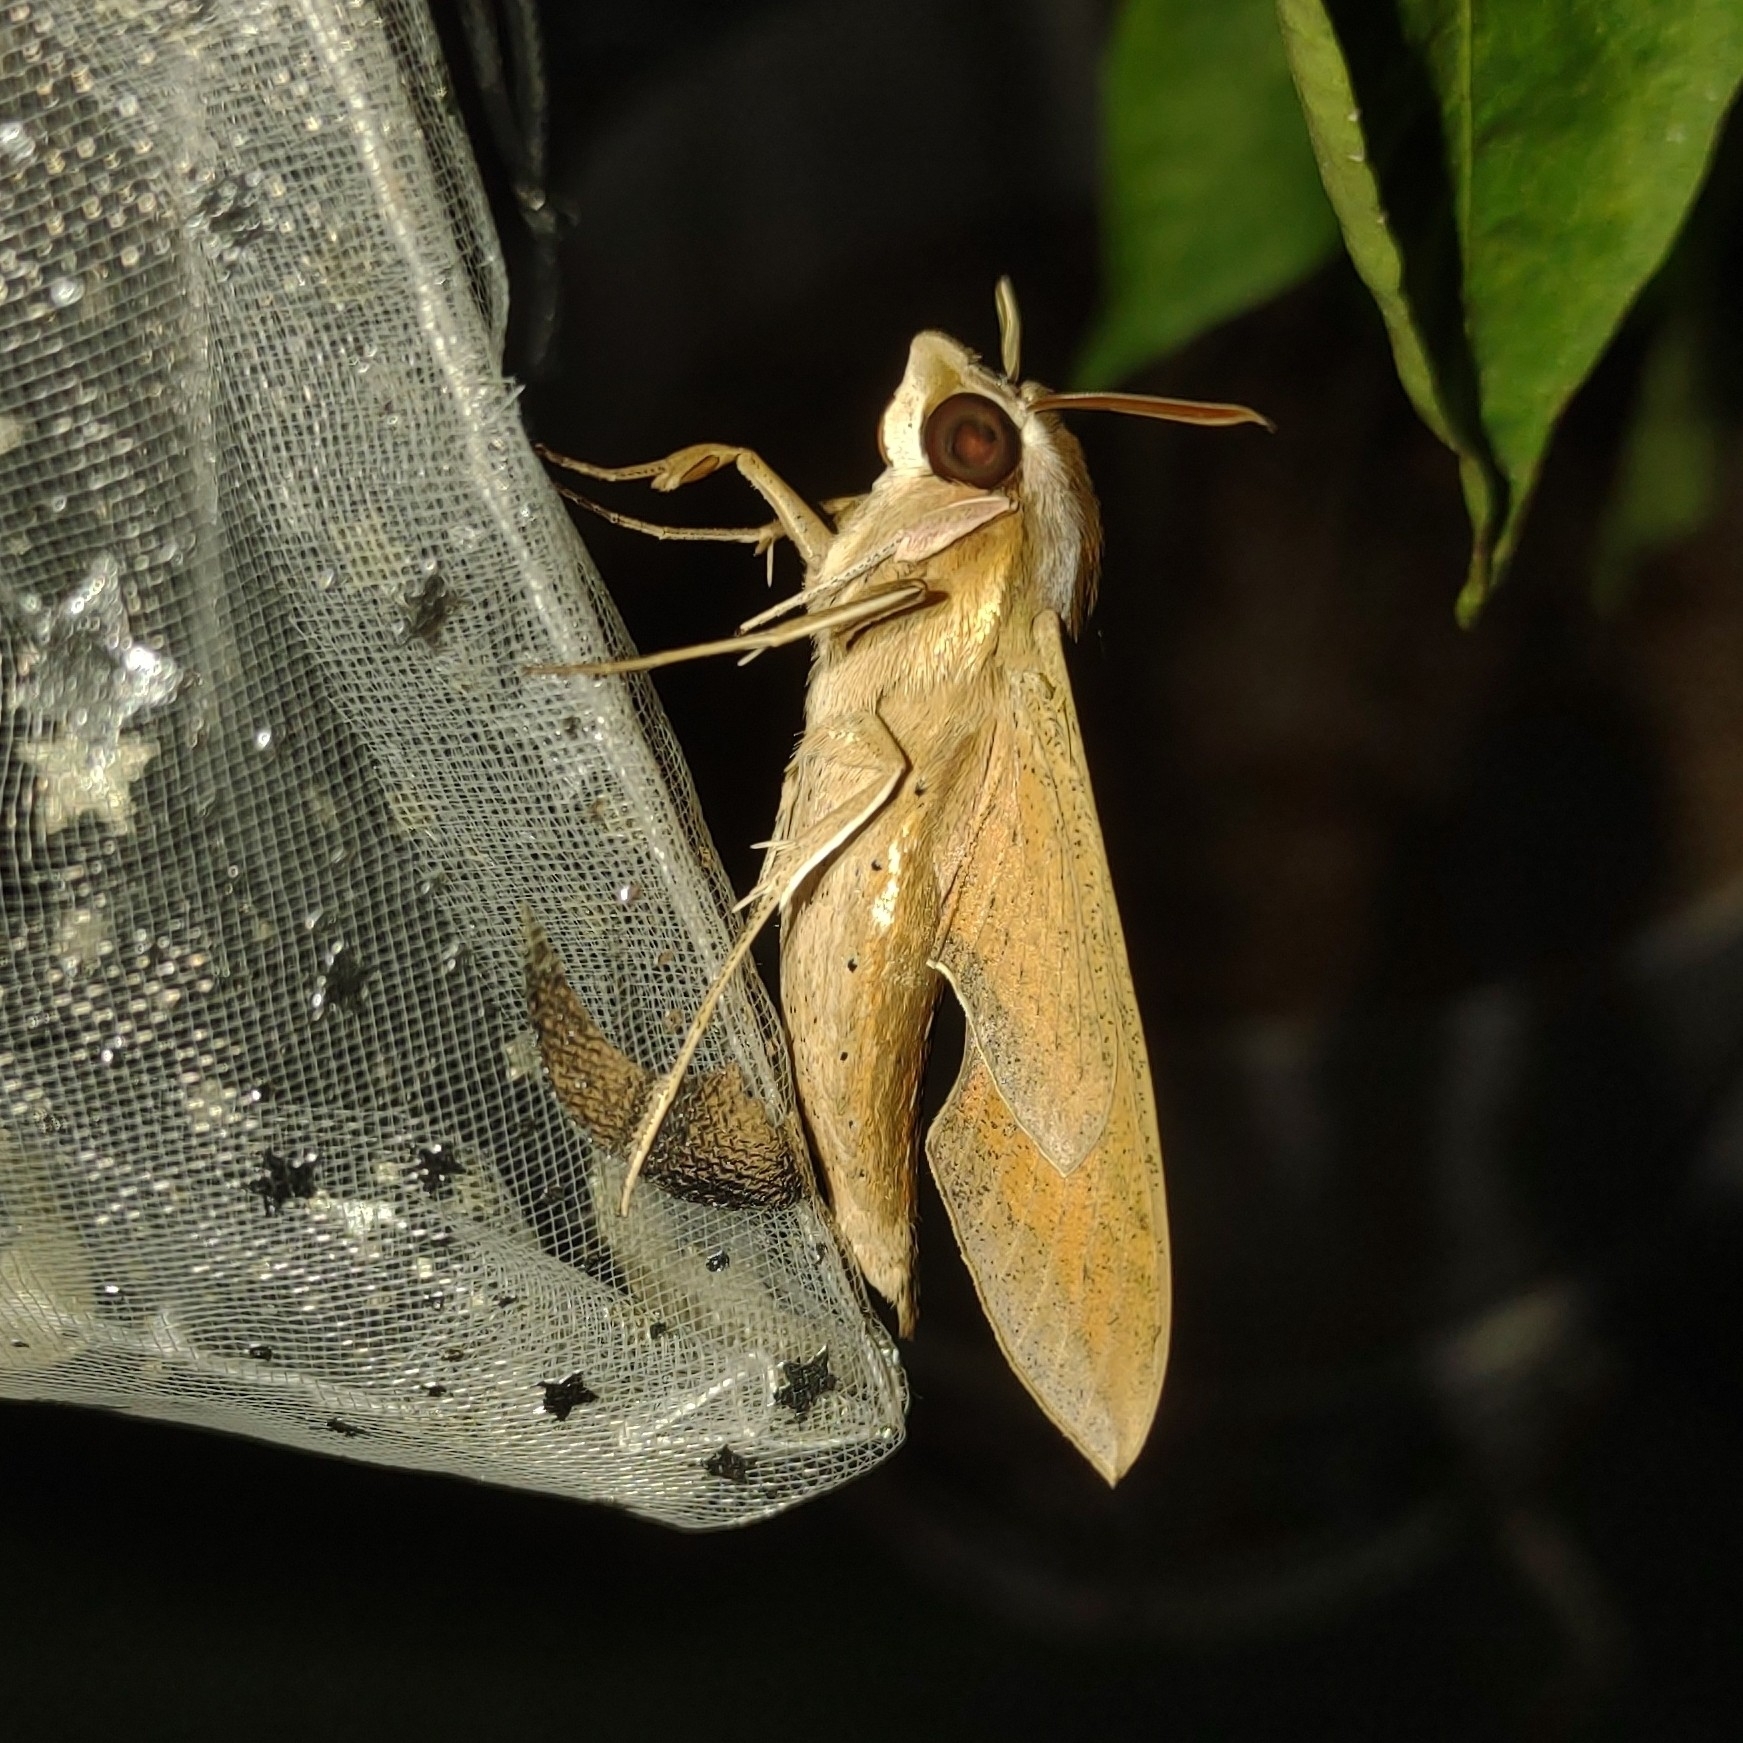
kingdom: Animalia
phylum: Arthropoda
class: Insecta
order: Lepidoptera
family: Sphingidae
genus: Hippotion
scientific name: Hippotion celerio
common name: Silver-striped hawk-moth
